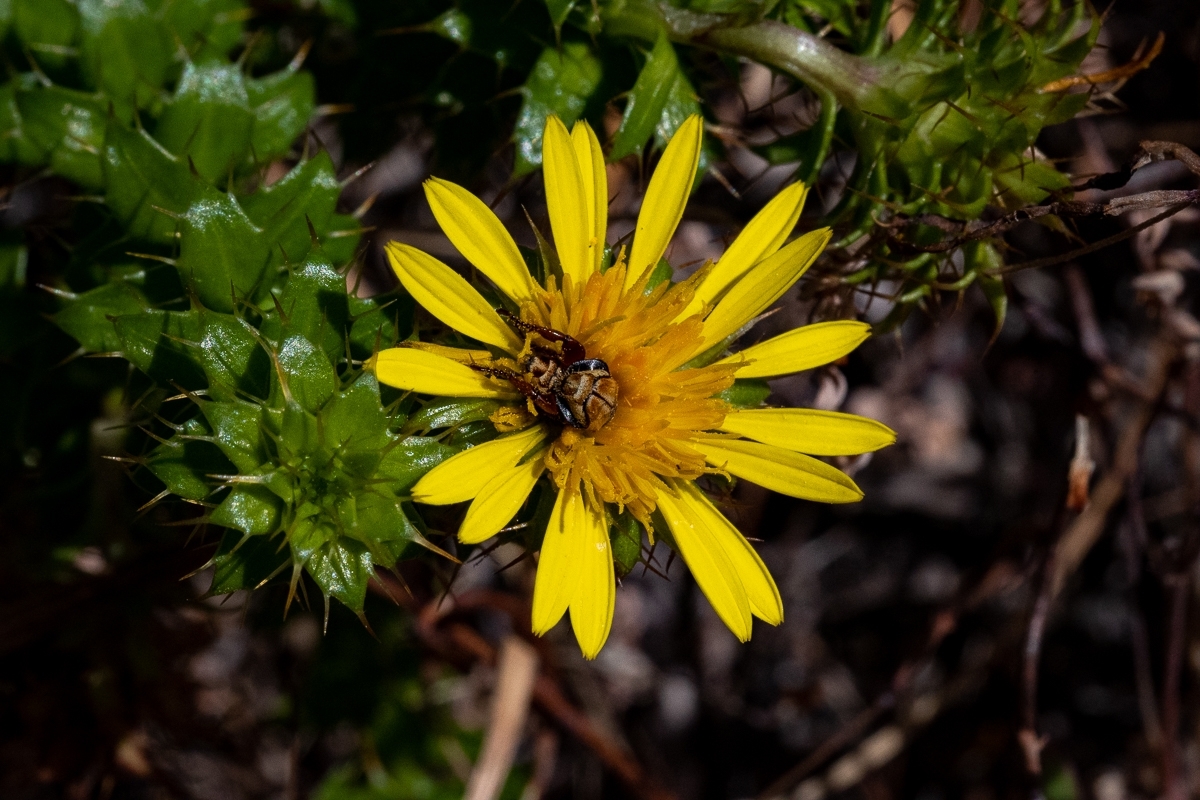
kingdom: Plantae
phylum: Tracheophyta
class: Magnoliopsida
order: Asterales
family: Asteraceae
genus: Cullumia
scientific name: Cullumia setosa
